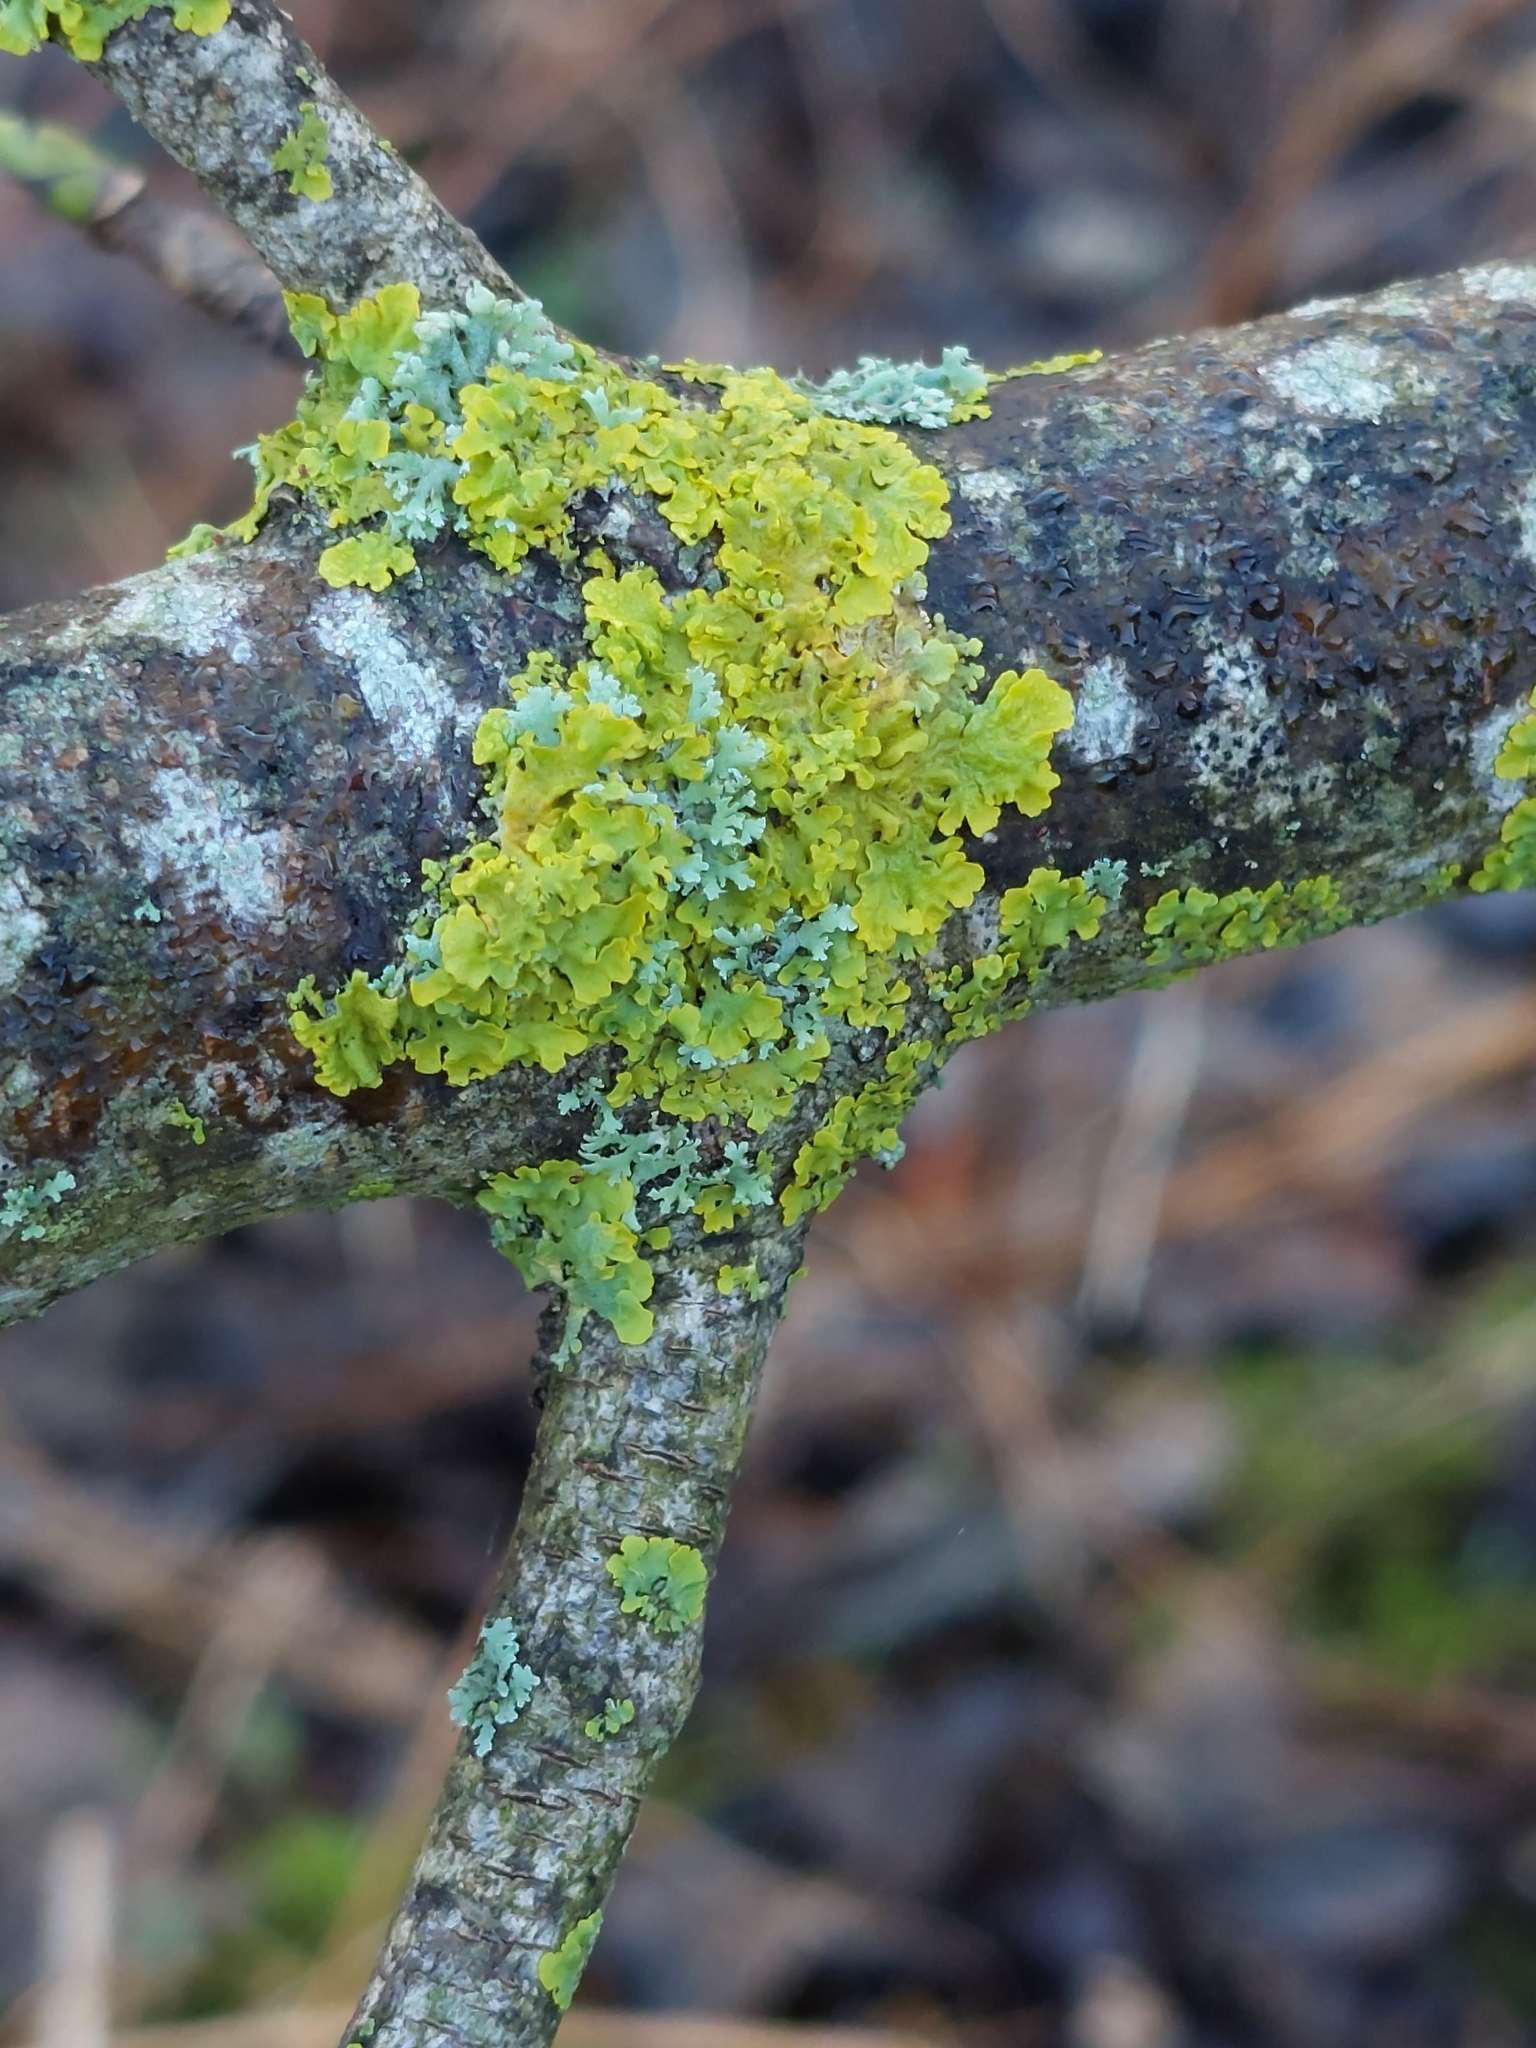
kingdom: Fungi
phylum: Ascomycota
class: Lecanoromycetes
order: Teloschistales
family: Teloschistaceae
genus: Xanthoria
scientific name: Xanthoria parietina
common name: Common orange lichen
